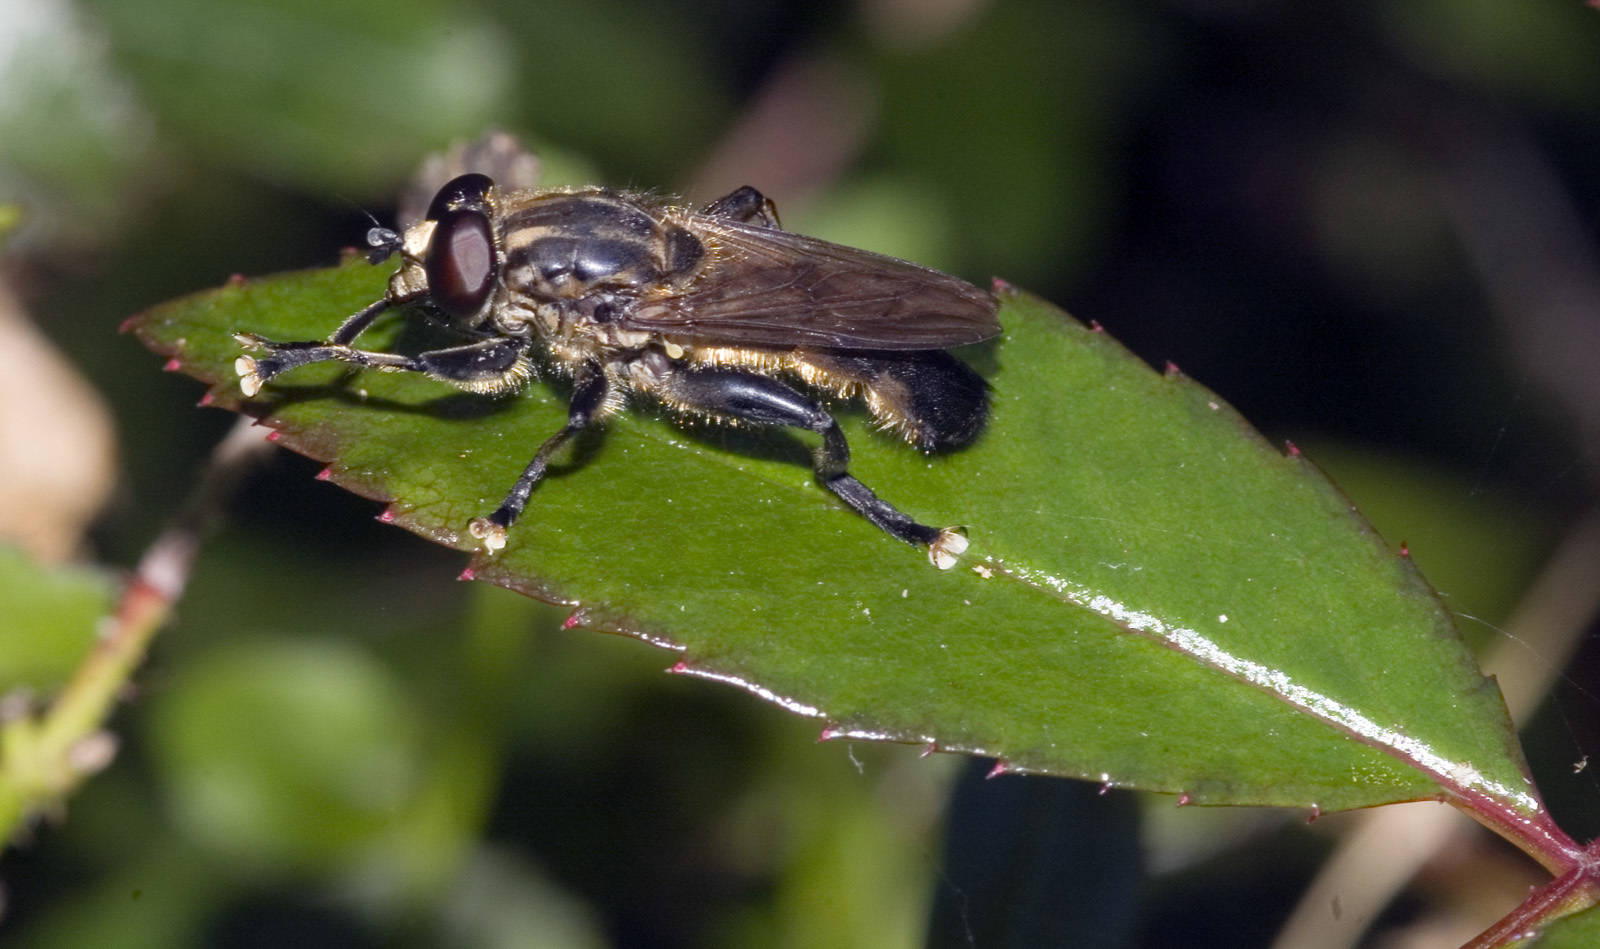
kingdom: Animalia
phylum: Arthropoda
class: Insecta
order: Diptera
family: Syrphidae
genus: Orthoprosopa
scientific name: Orthoprosopa bilineata
